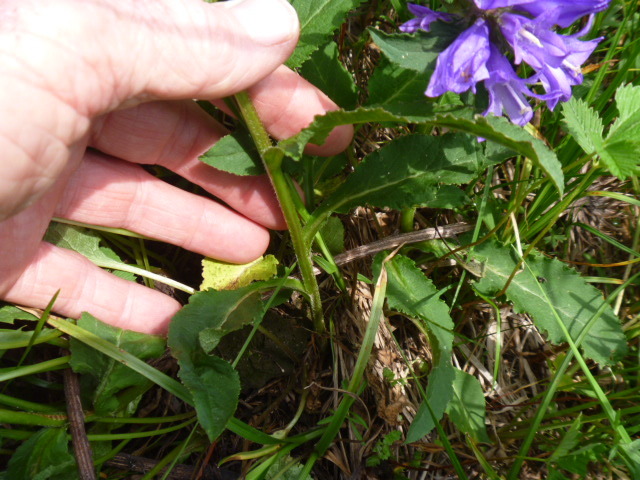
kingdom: Plantae
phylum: Tracheophyta
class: Magnoliopsida
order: Asterales
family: Campanulaceae
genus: Campanula
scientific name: Campanula glomerata
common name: Clustered bellflower
